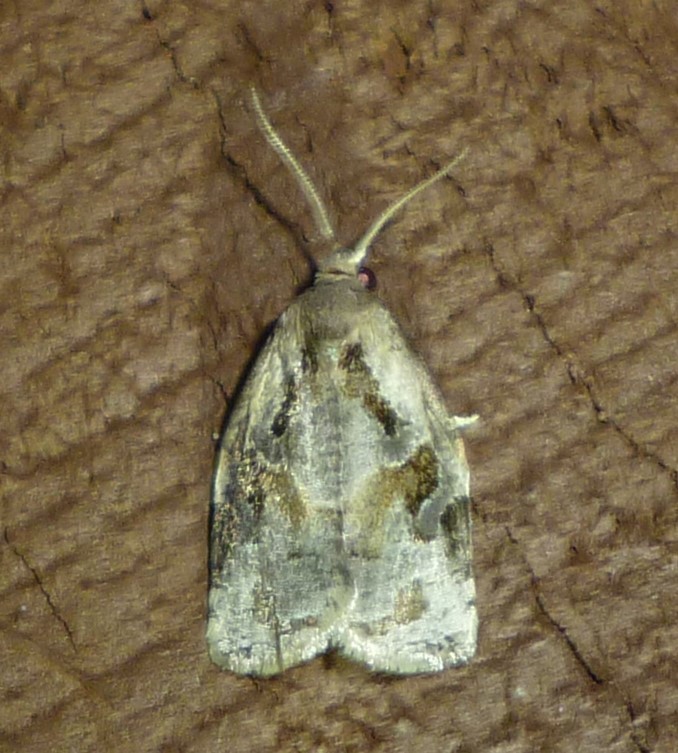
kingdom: Animalia
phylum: Arthropoda
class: Insecta
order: Lepidoptera
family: Tortricidae
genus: Archips
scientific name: Archips grisea
